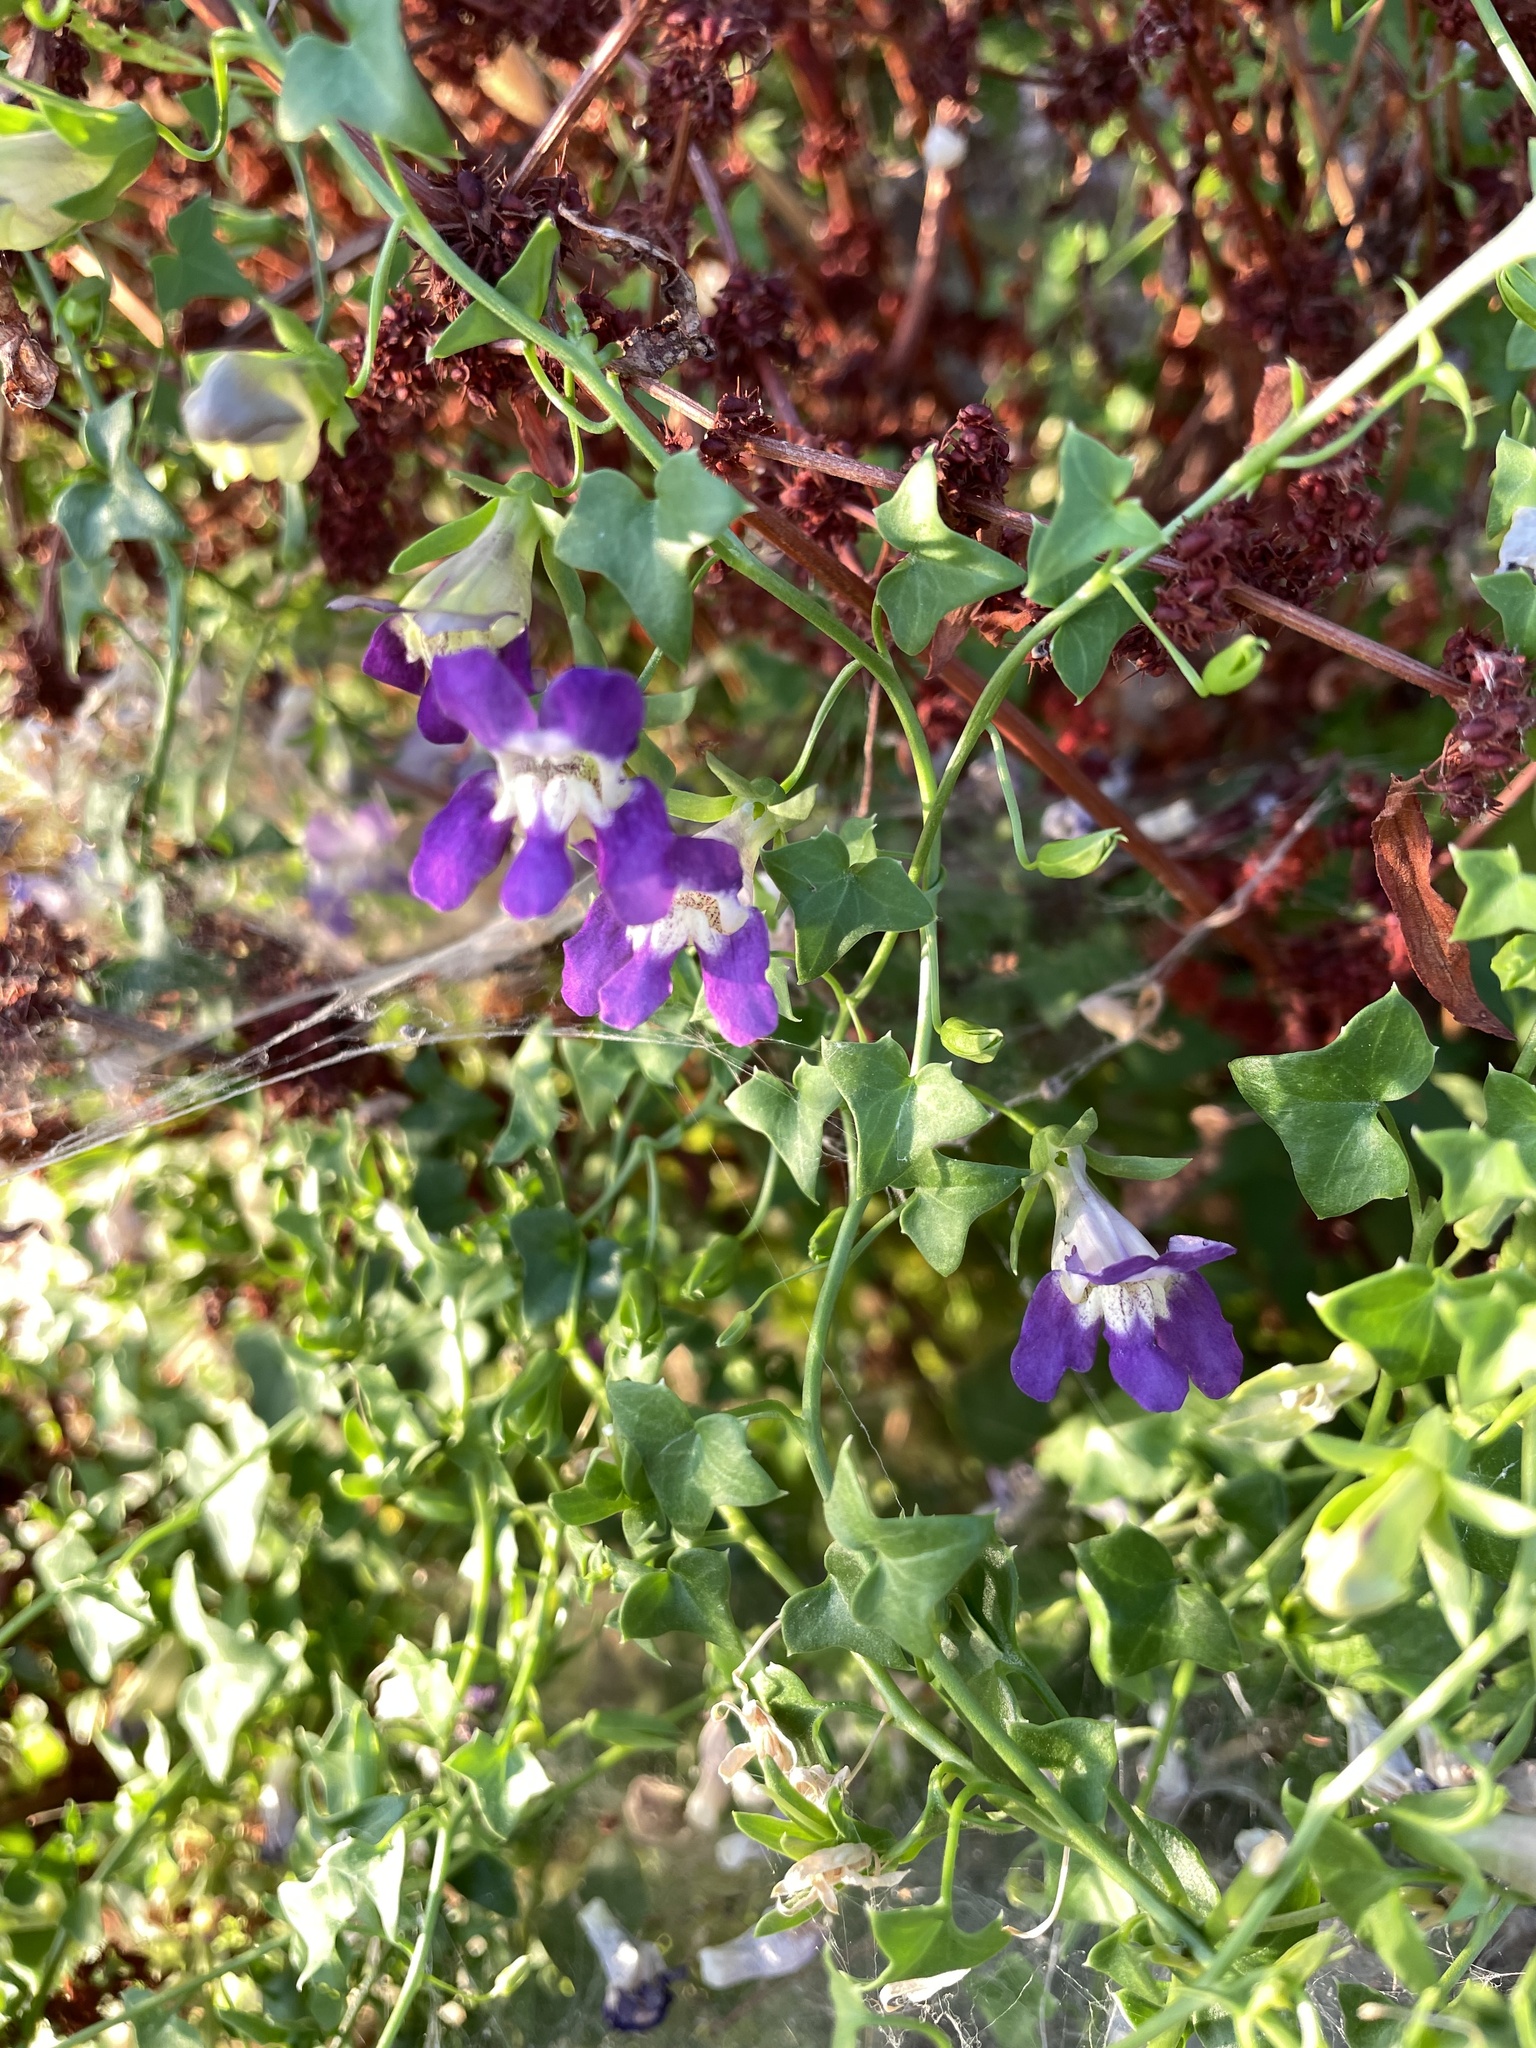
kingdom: Plantae
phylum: Tracheophyta
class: Magnoliopsida
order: Lamiales
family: Plantaginaceae
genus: Maurandella
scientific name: Maurandella antirrhiniflora
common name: Violet twining-snapdragon
